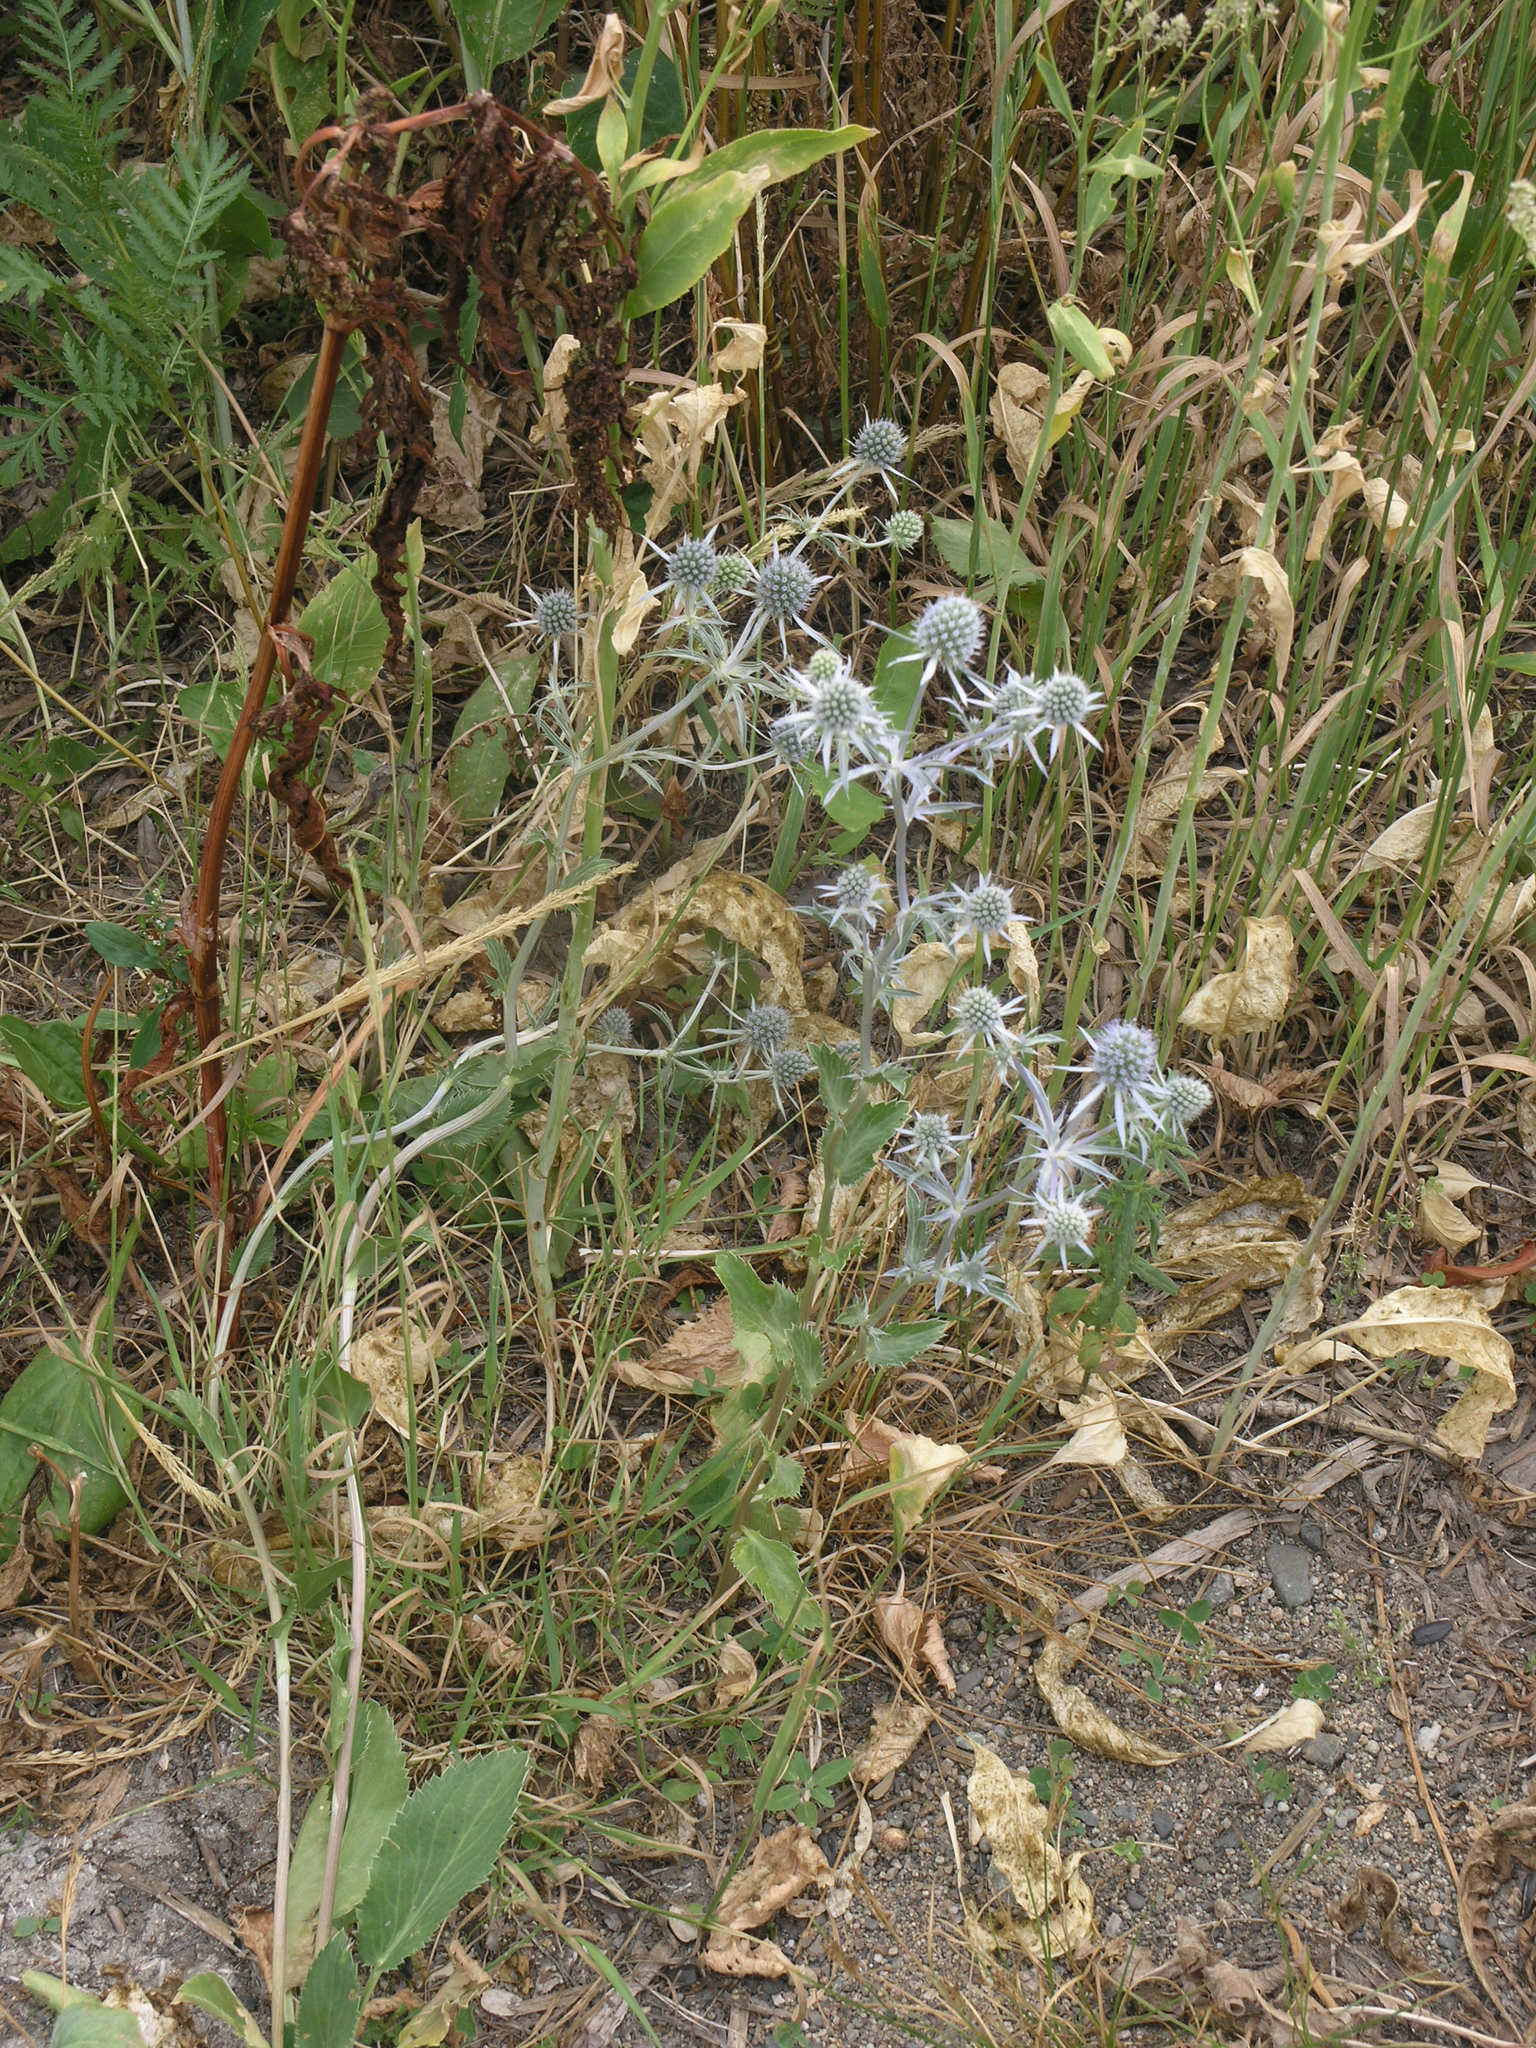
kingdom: Plantae
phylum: Tracheophyta
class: Magnoliopsida
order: Apiales
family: Apiaceae
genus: Eryngium
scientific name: Eryngium planum
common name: Blue eryngo
